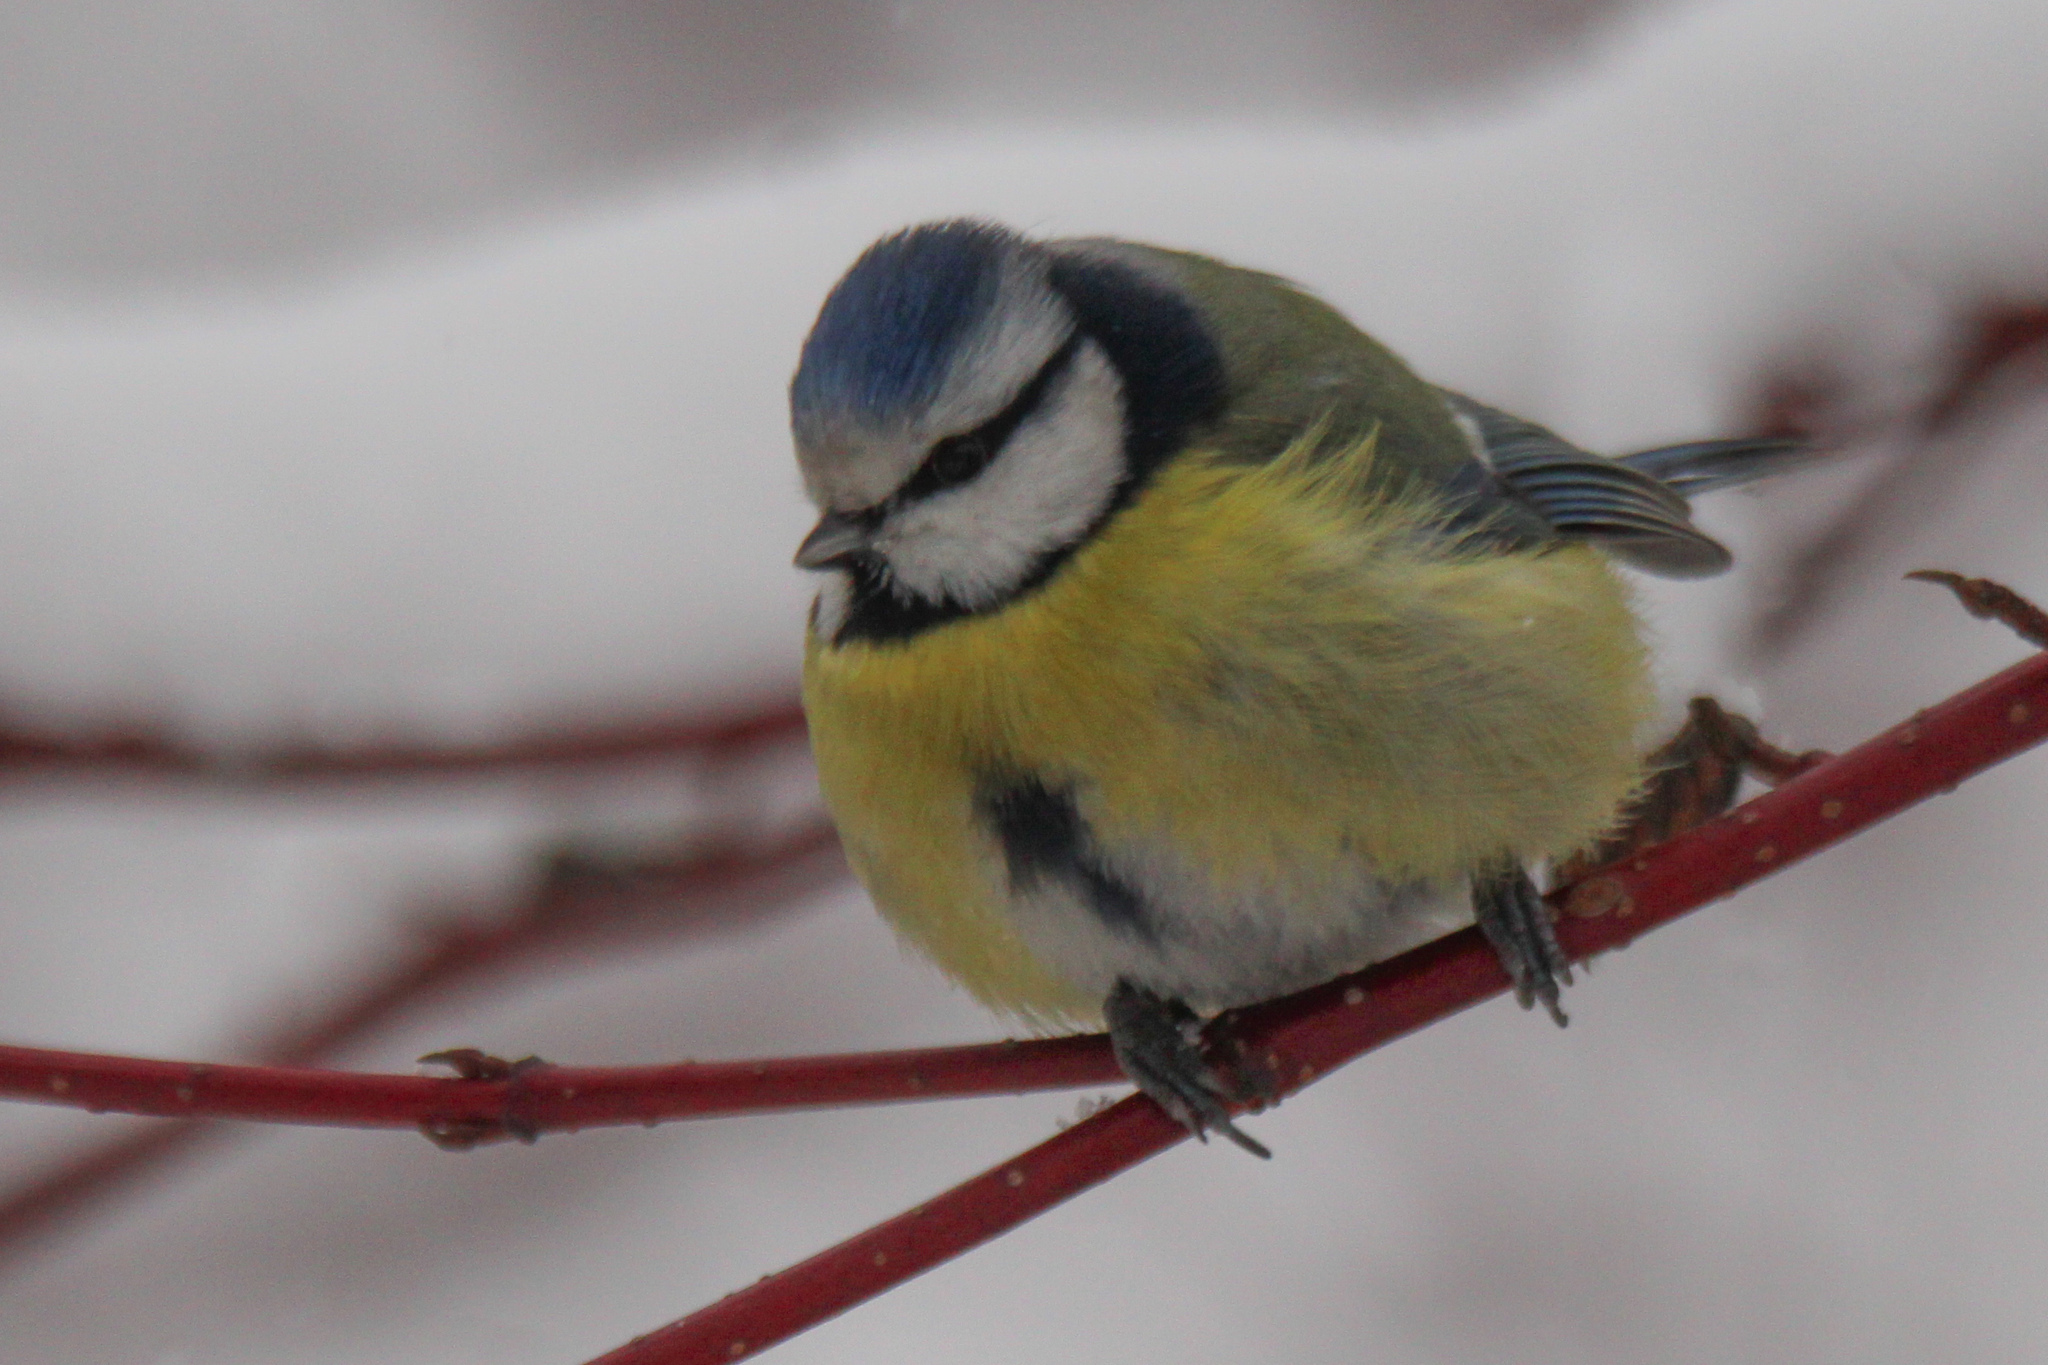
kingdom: Animalia
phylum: Chordata
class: Aves
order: Passeriformes
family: Paridae
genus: Cyanistes
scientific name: Cyanistes caeruleus
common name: Eurasian blue tit
